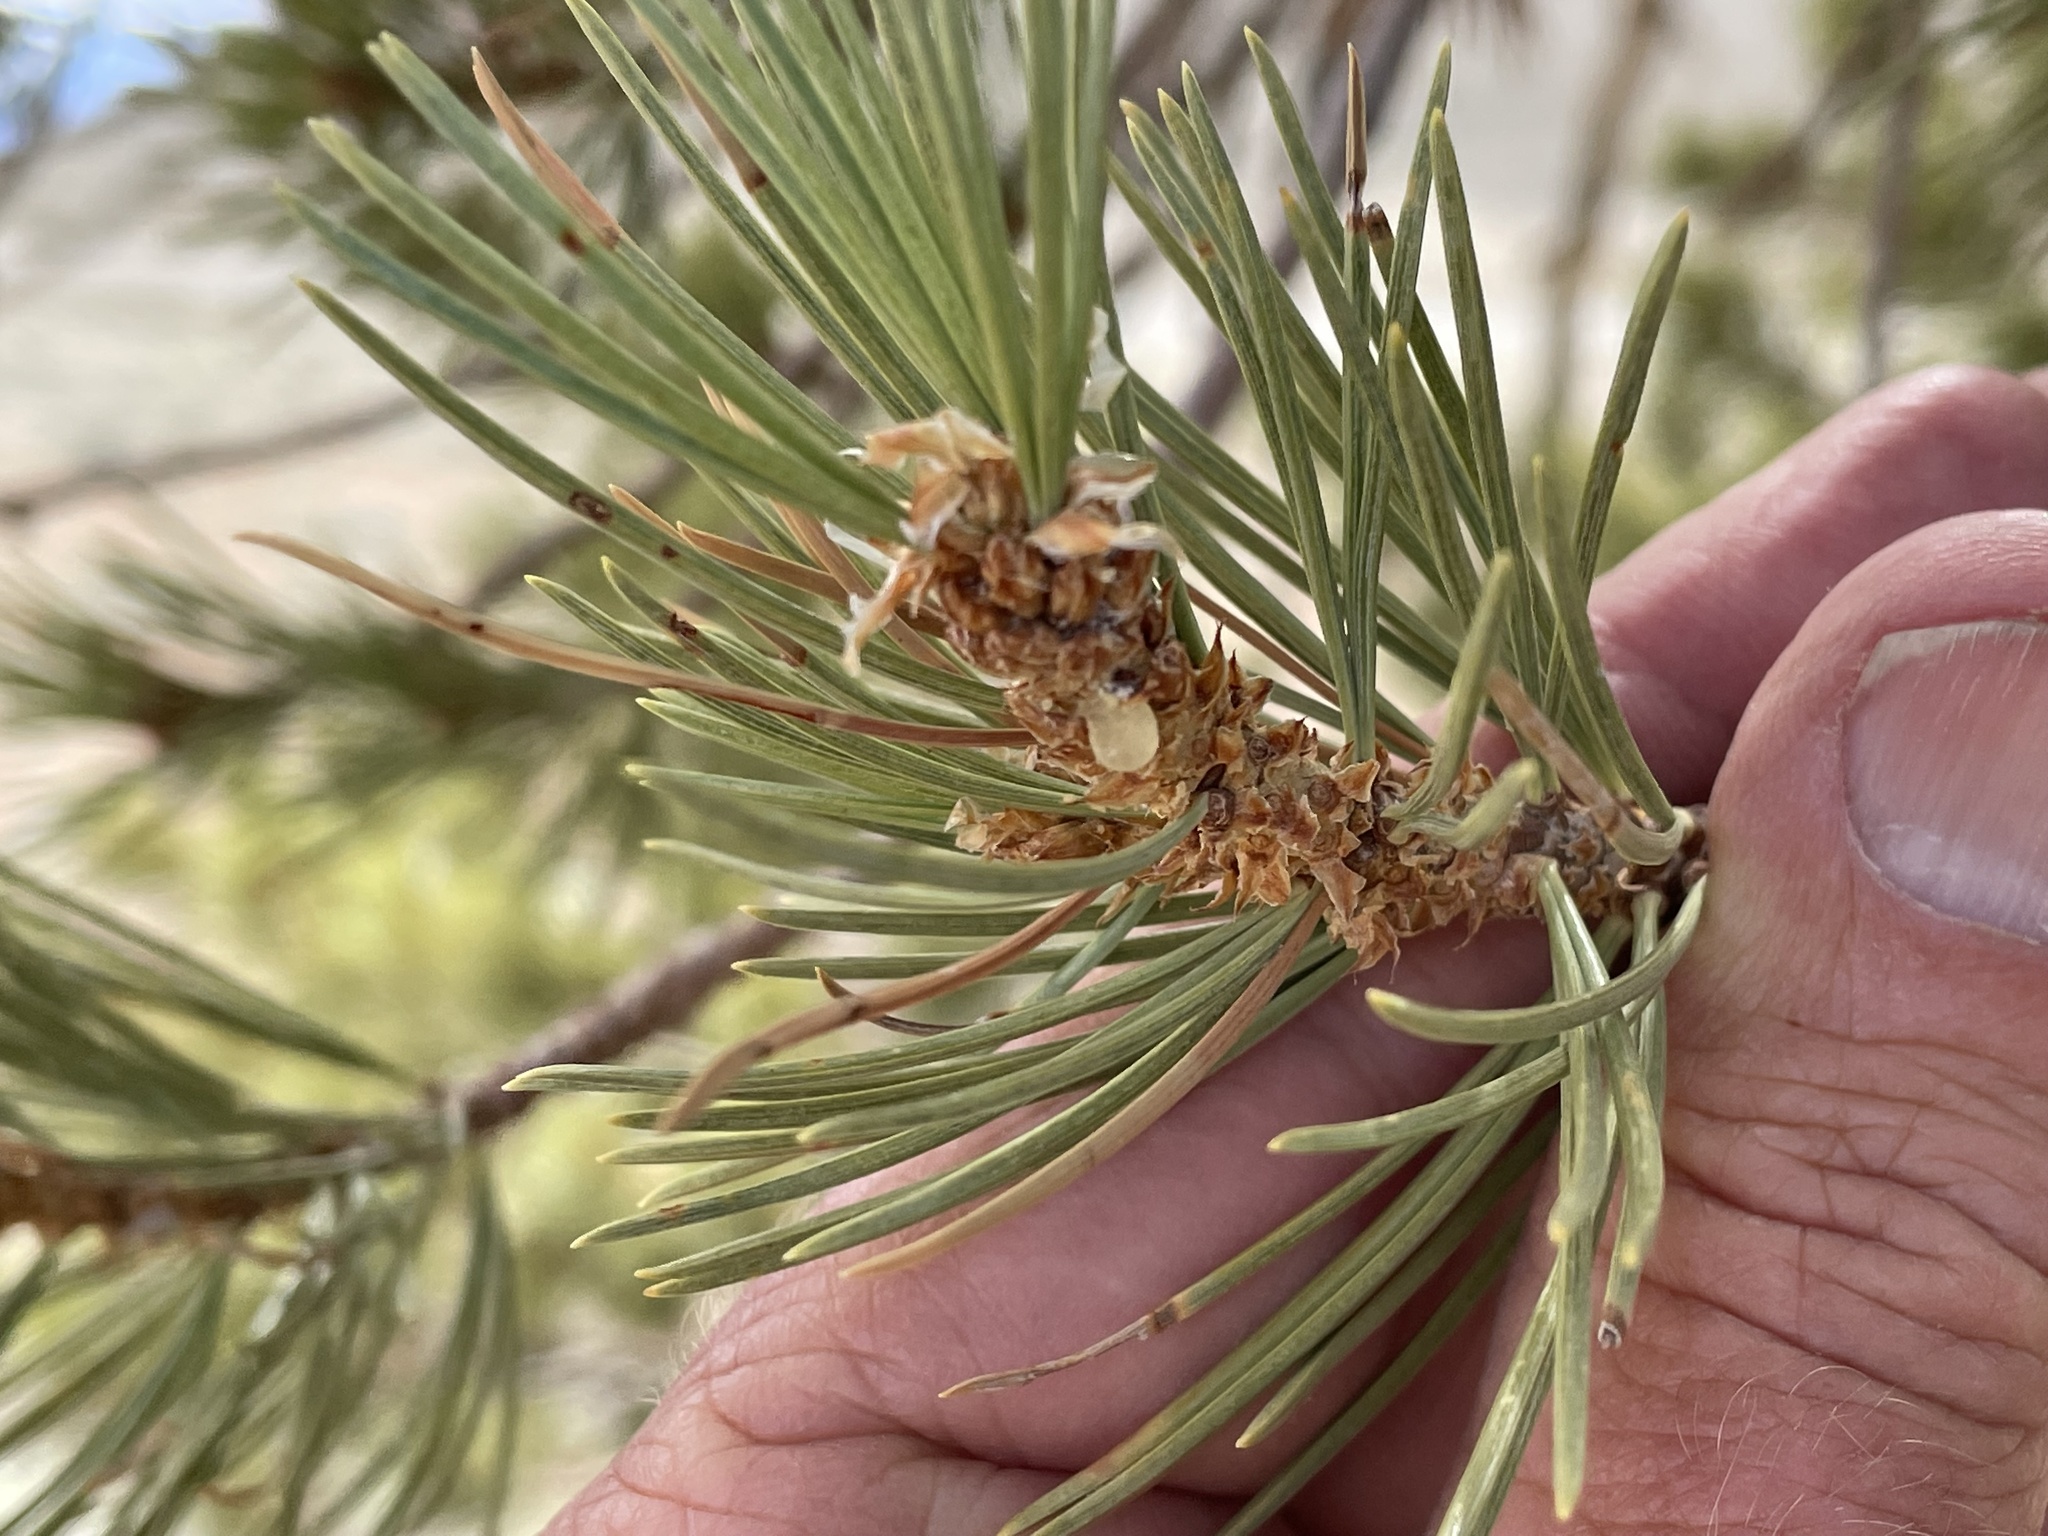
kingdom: Plantae
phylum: Tracheophyta
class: Pinopsida
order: Pinales
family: Pinaceae
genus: Pinus
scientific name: Pinus flexilis
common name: Limber pine
